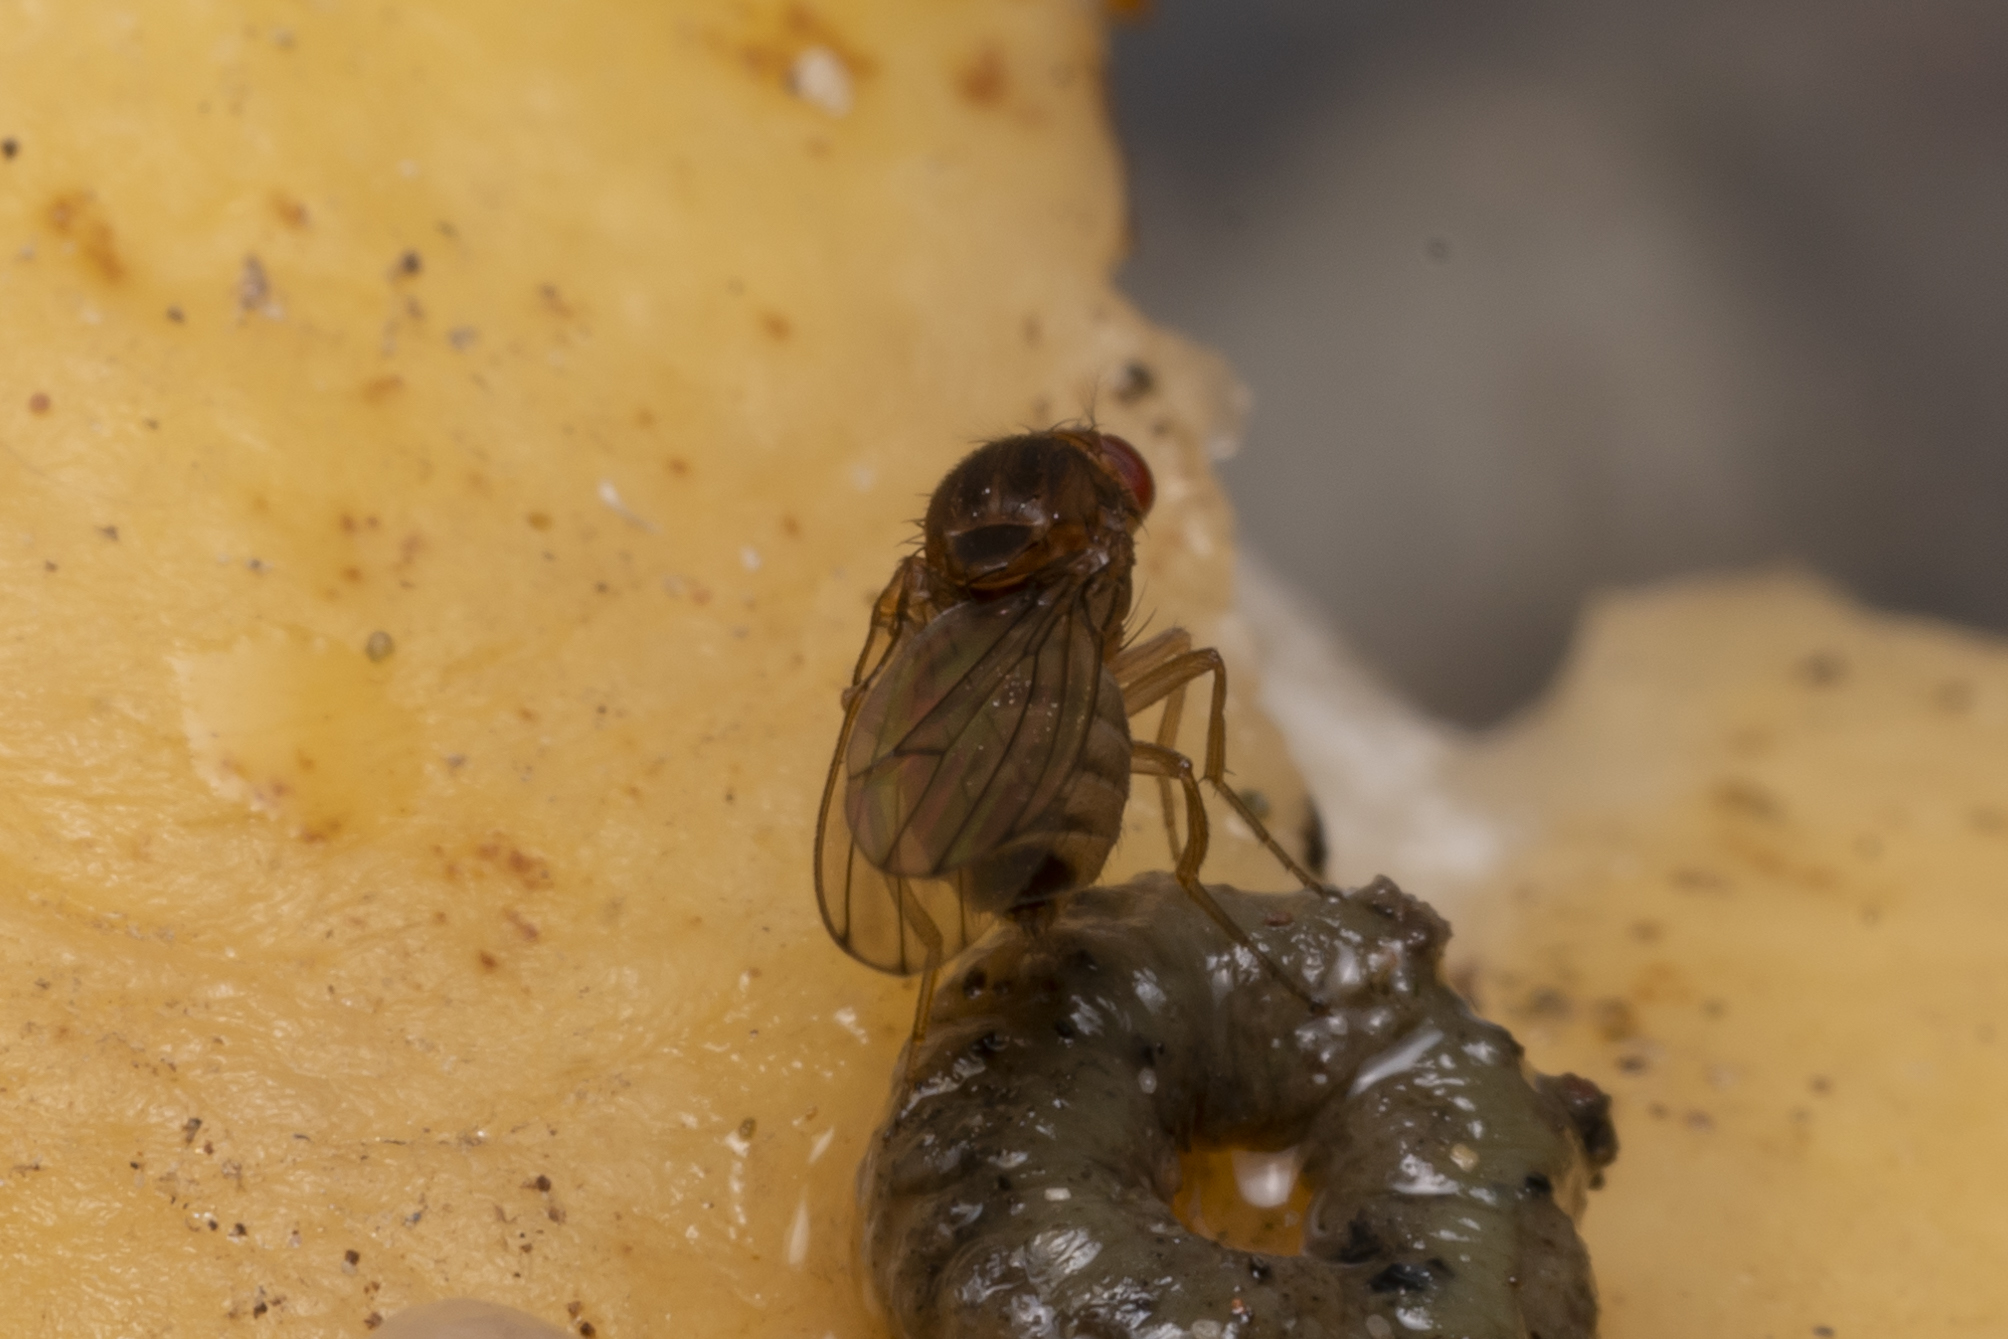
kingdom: Animalia
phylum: Arthropoda
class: Insecta
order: Diptera
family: Drosophilidae
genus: Drosophila
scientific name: Drosophila immigrans
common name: Pomace fly
